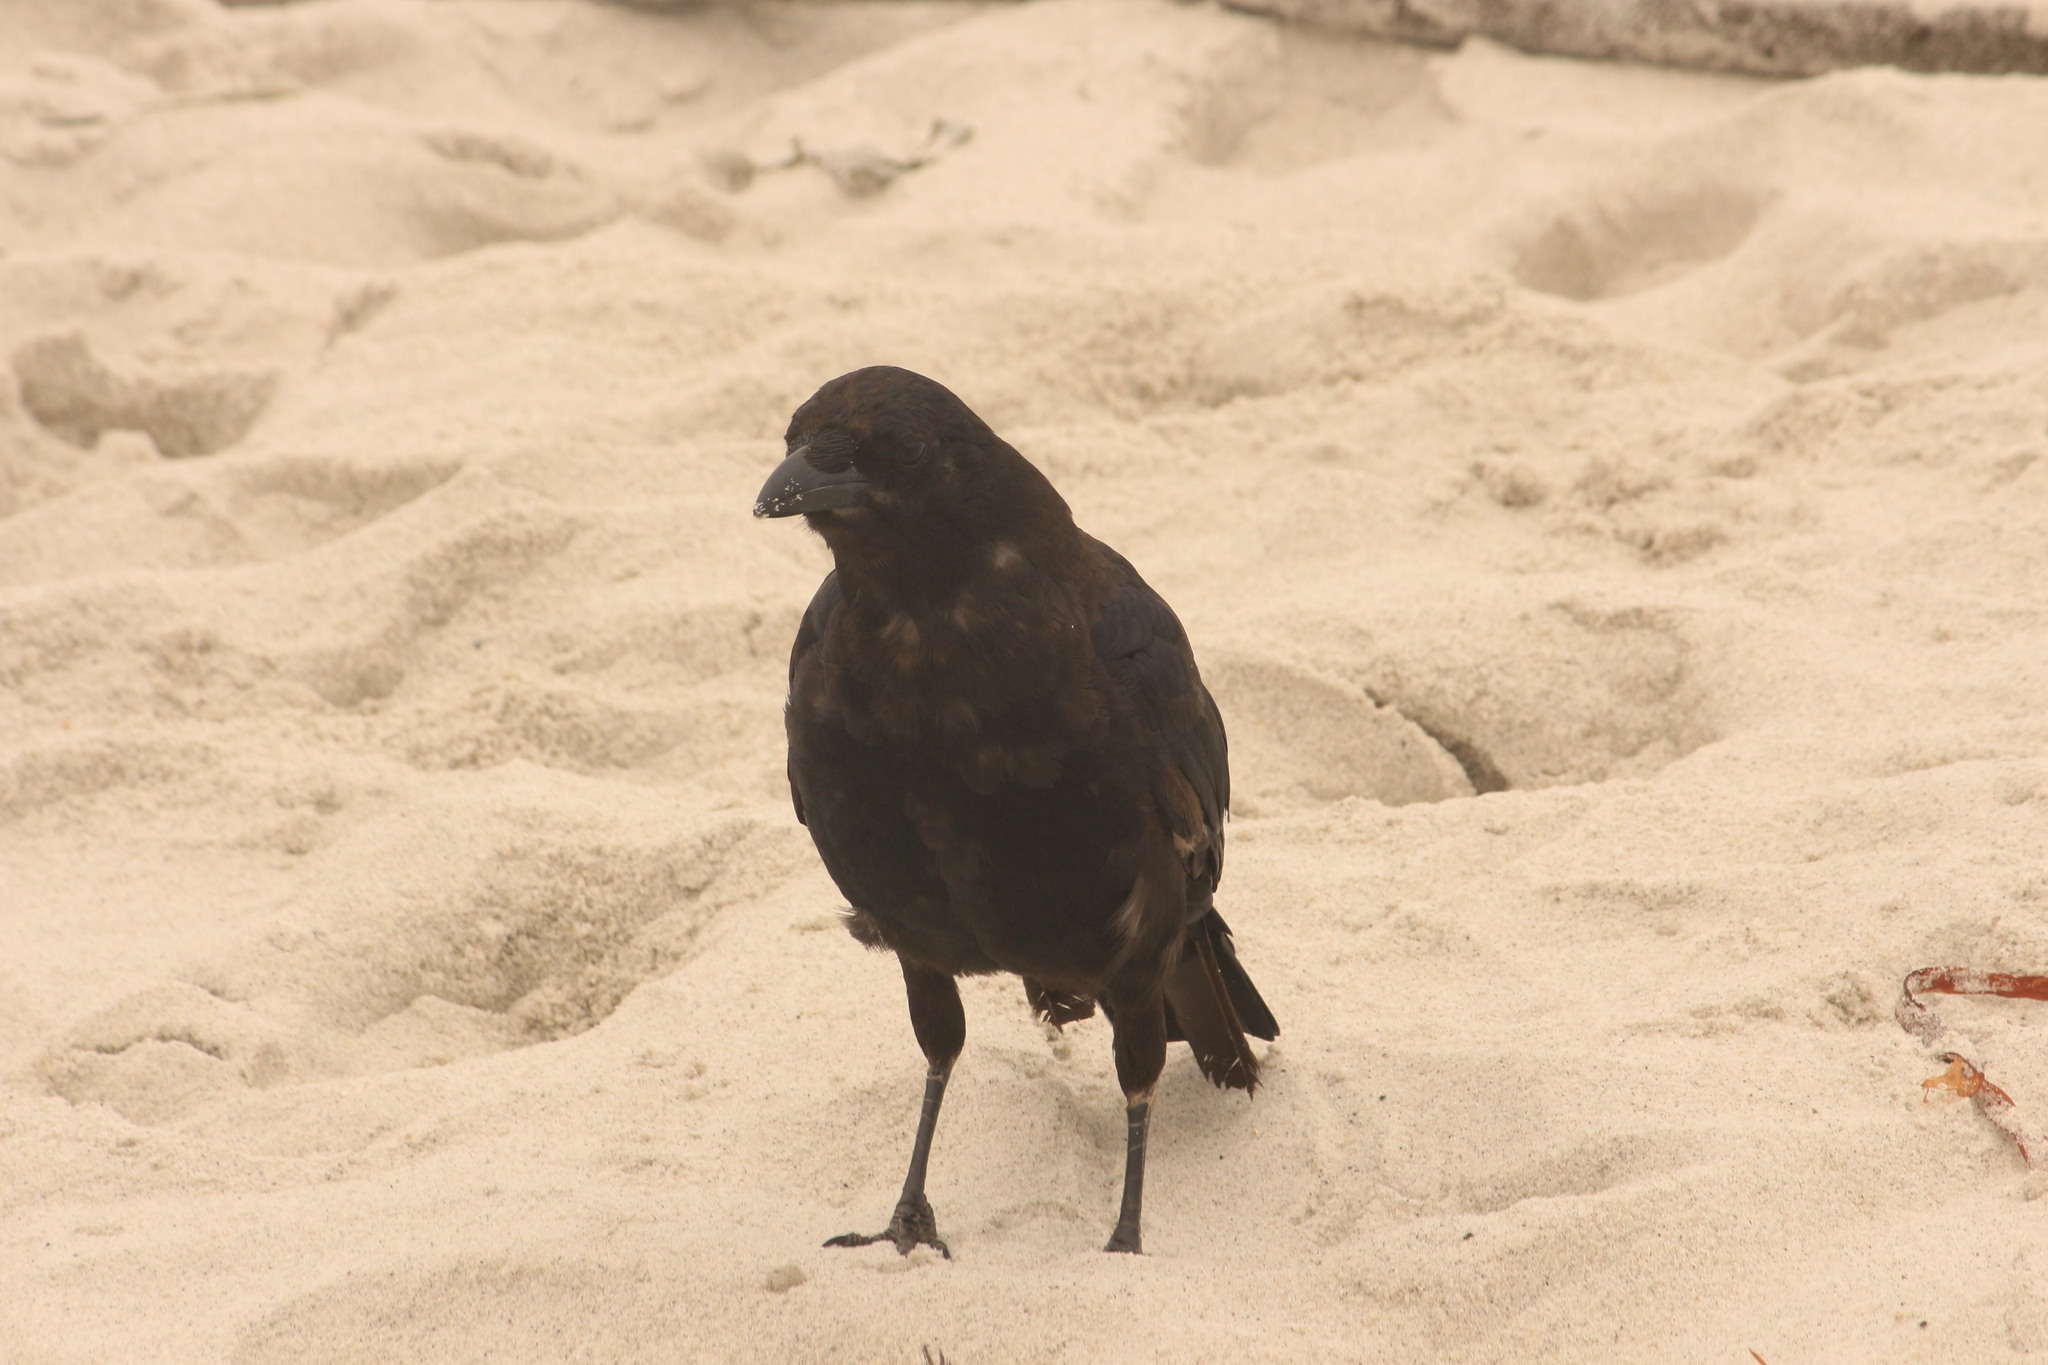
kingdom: Animalia
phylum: Chordata
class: Aves
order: Passeriformes
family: Corvidae
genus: Corvus
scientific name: Corvus brachyrhynchos
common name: American crow
